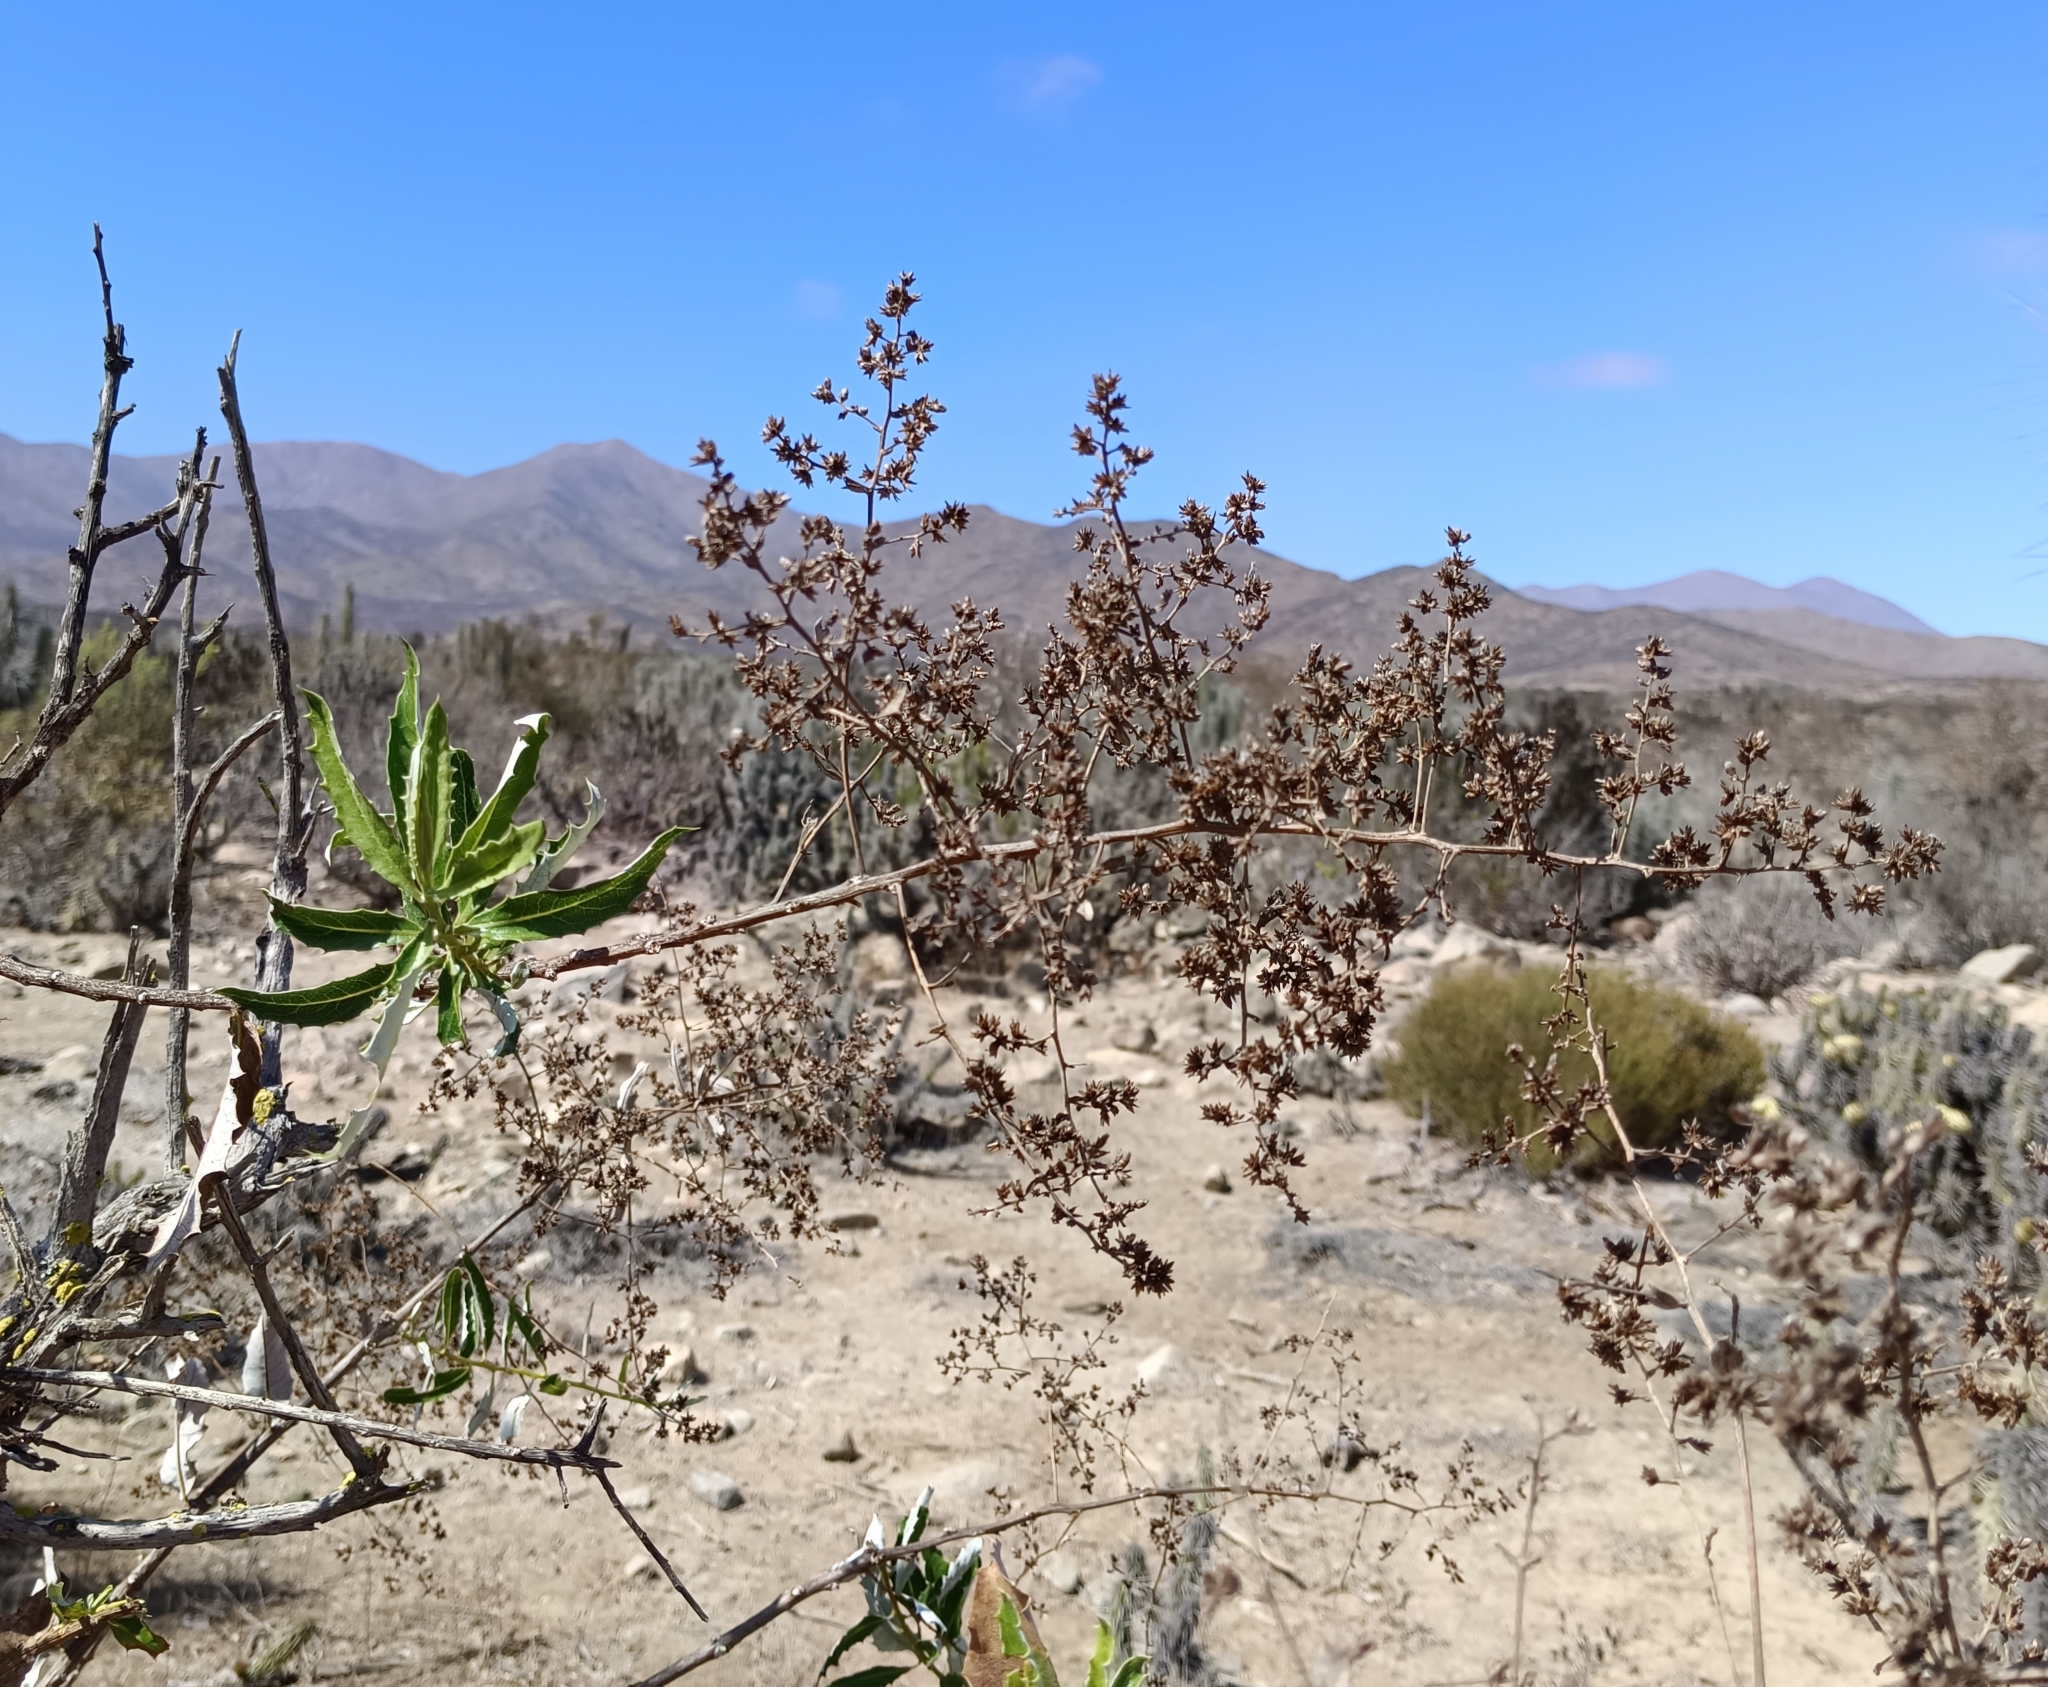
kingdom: Plantae
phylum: Tracheophyta
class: Magnoliopsida
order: Asterales
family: Asteraceae
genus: Spinoliva
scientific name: Spinoliva ilicifolia
